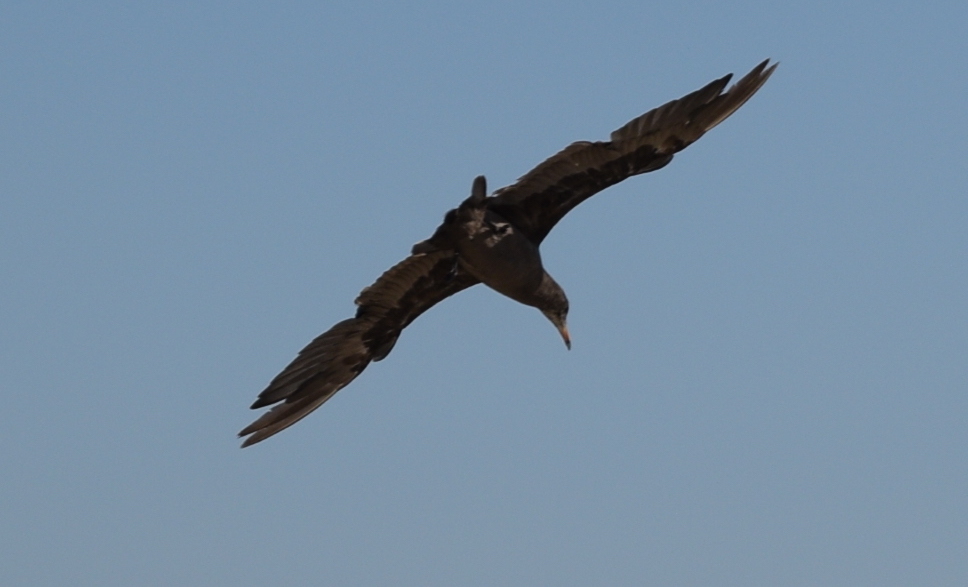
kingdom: Animalia
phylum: Chordata
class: Aves
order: Charadriiformes
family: Laridae
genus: Larus
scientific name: Larus heermanni
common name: Heermann's gull
